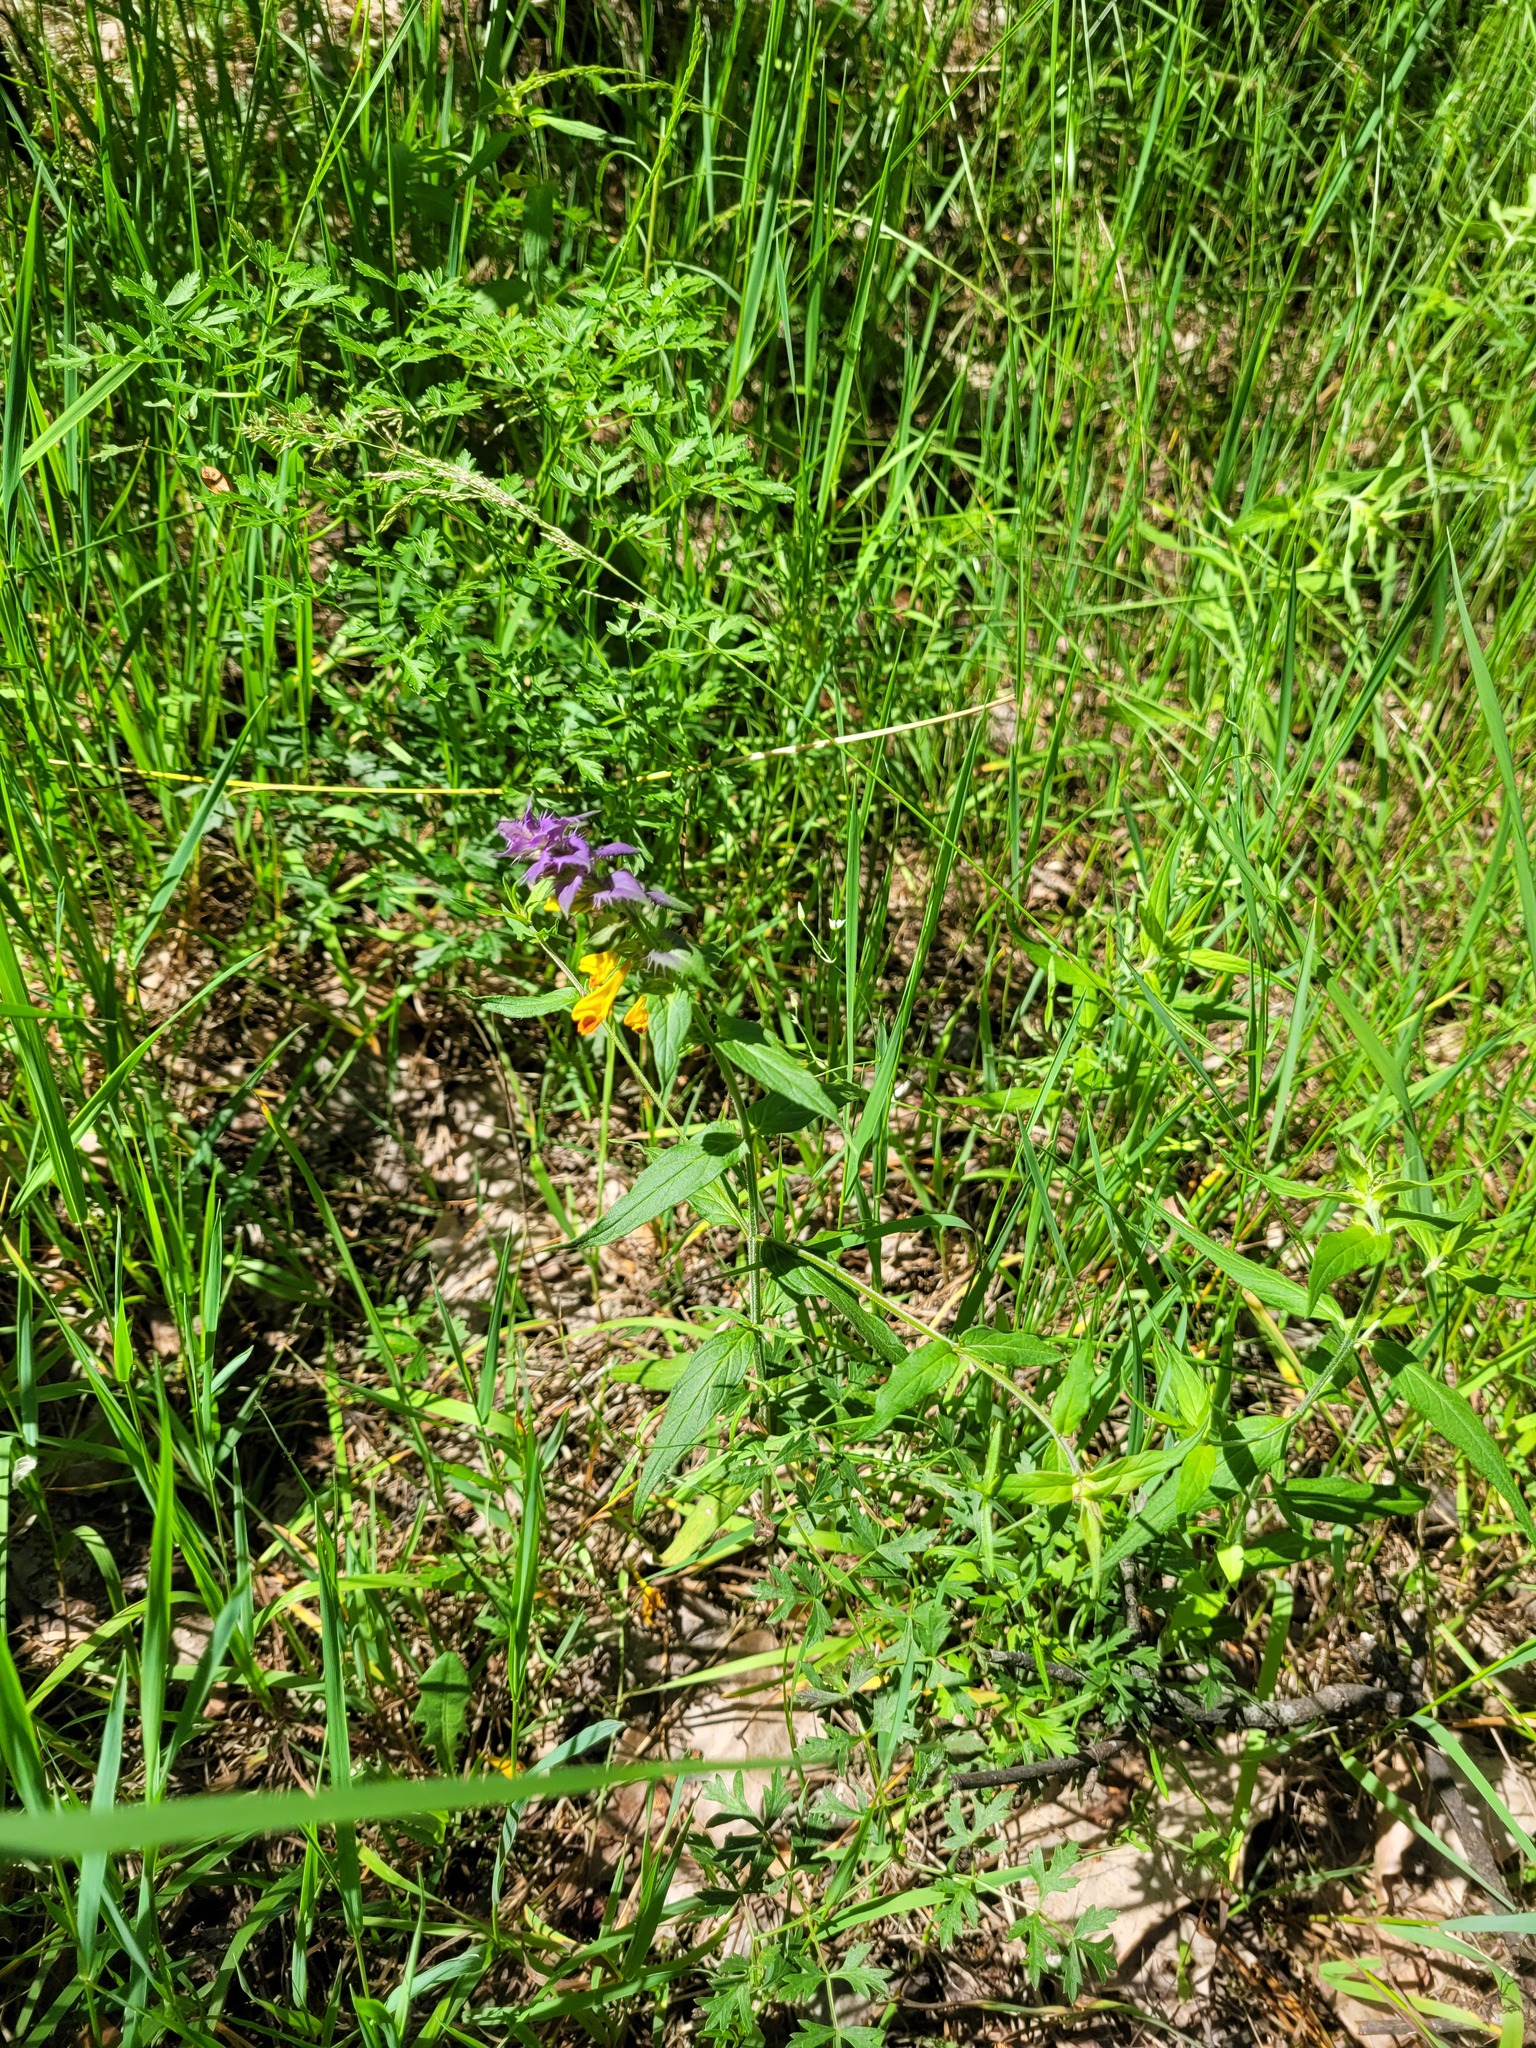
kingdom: Plantae
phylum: Tracheophyta
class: Magnoliopsida
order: Lamiales
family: Orobanchaceae
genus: Melampyrum
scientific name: Melampyrum nemorosum
